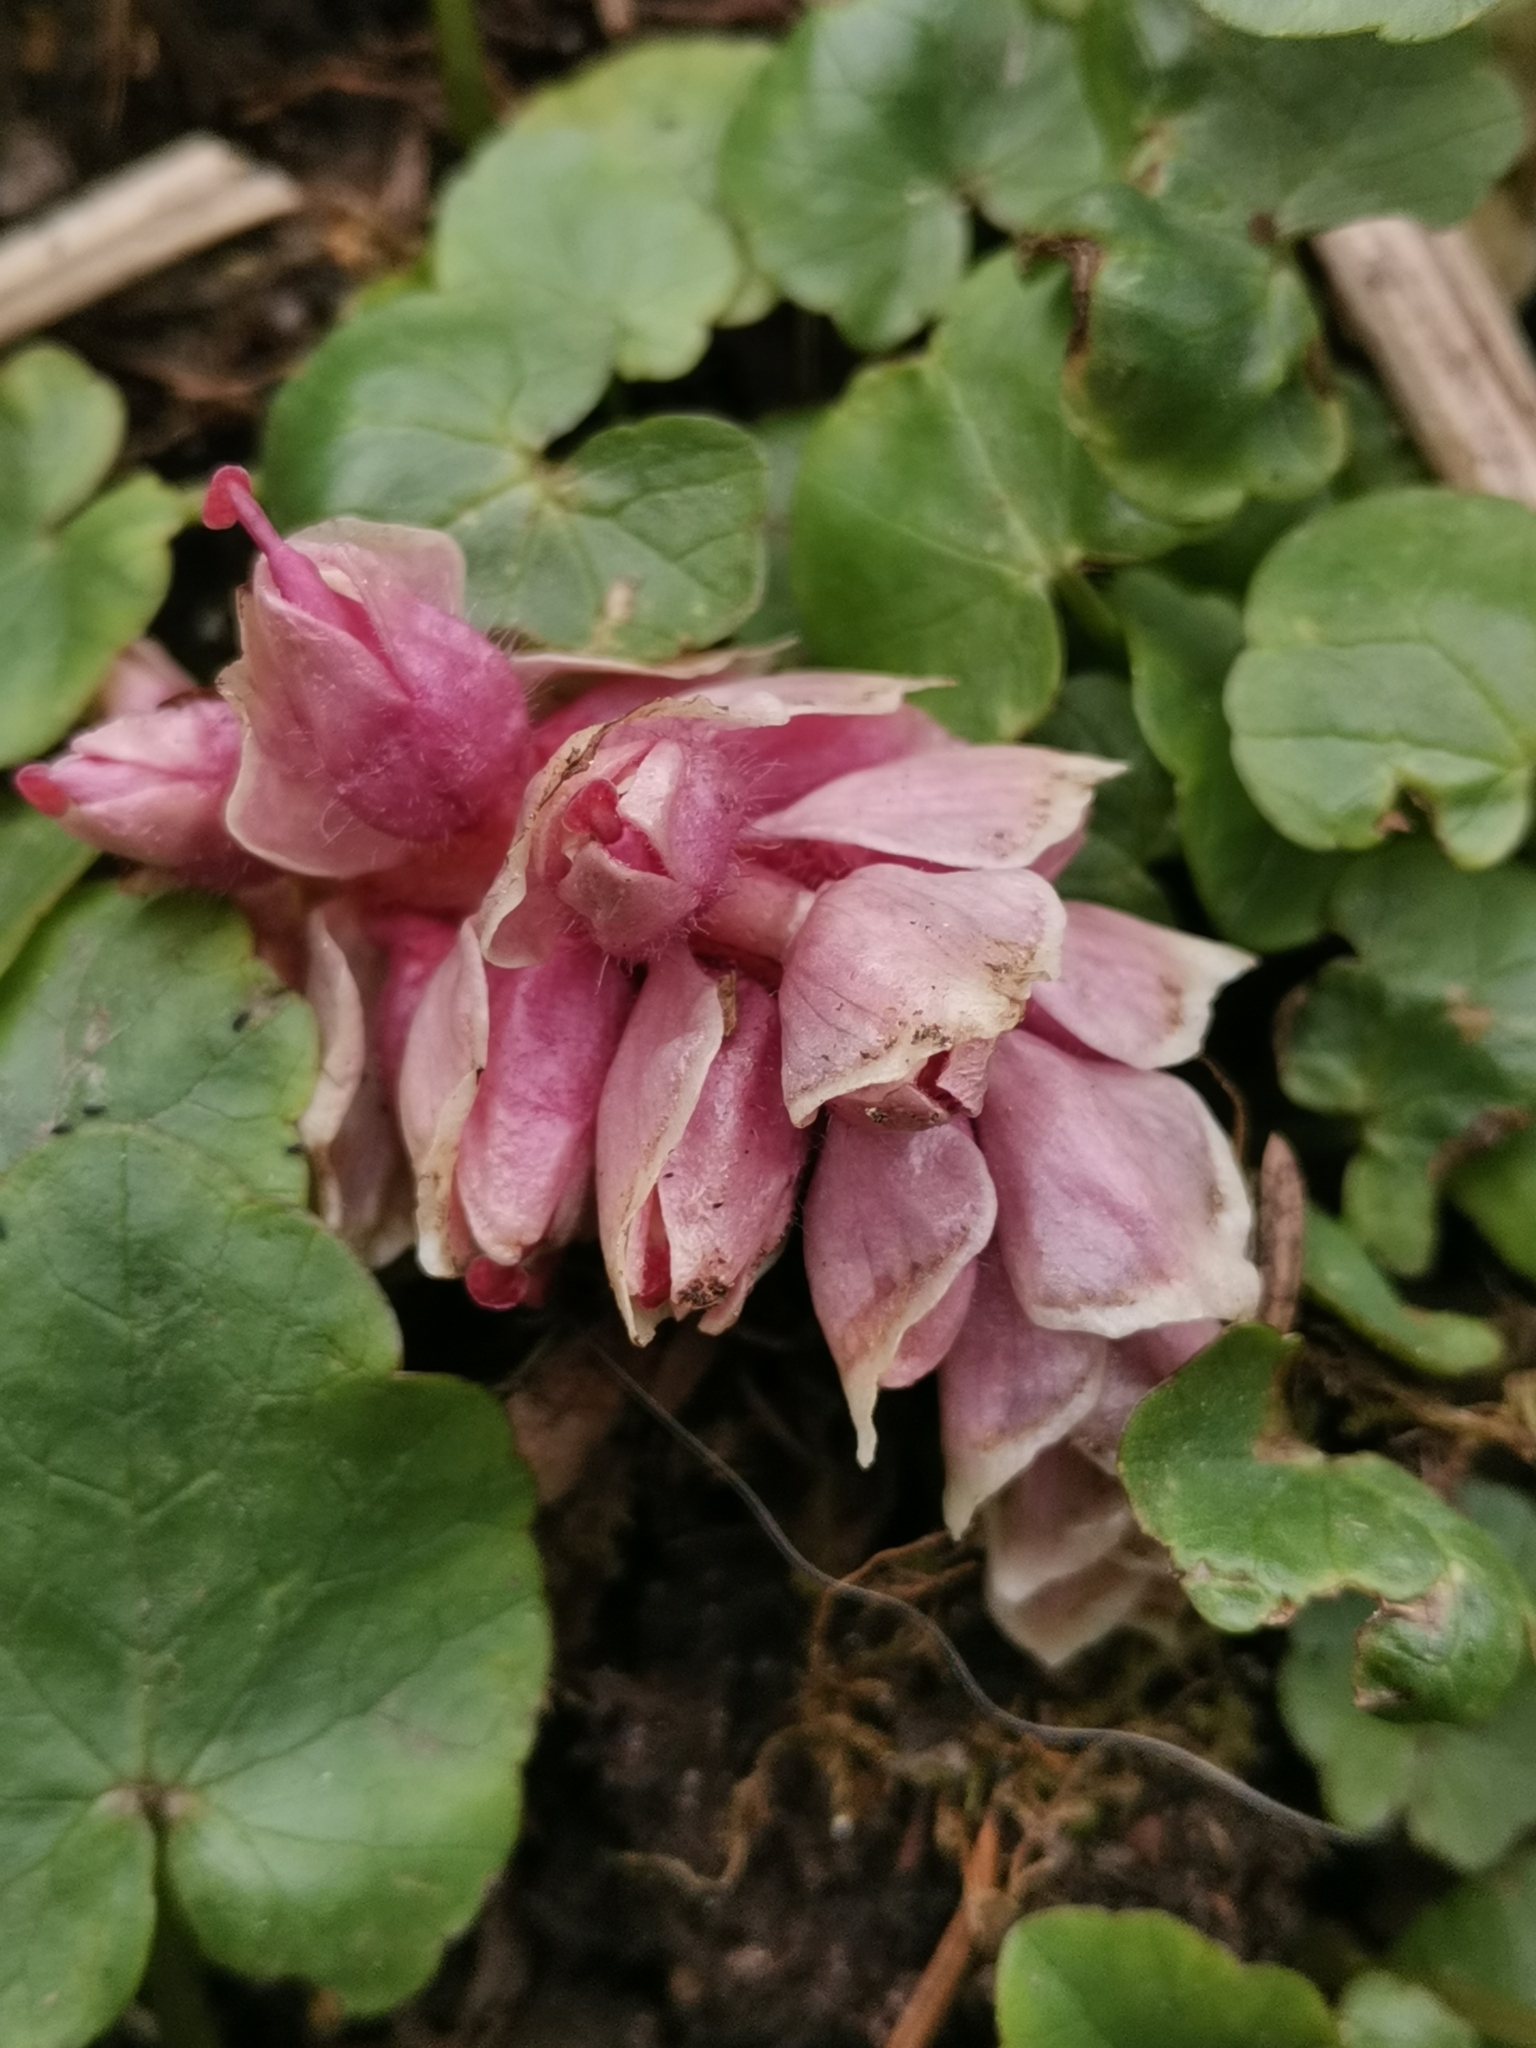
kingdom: Plantae
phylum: Tracheophyta
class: Magnoliopsida
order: Lamiales
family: Orobanchaceae
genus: Lathraea
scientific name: Lathraea squamaria
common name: Toothwort
